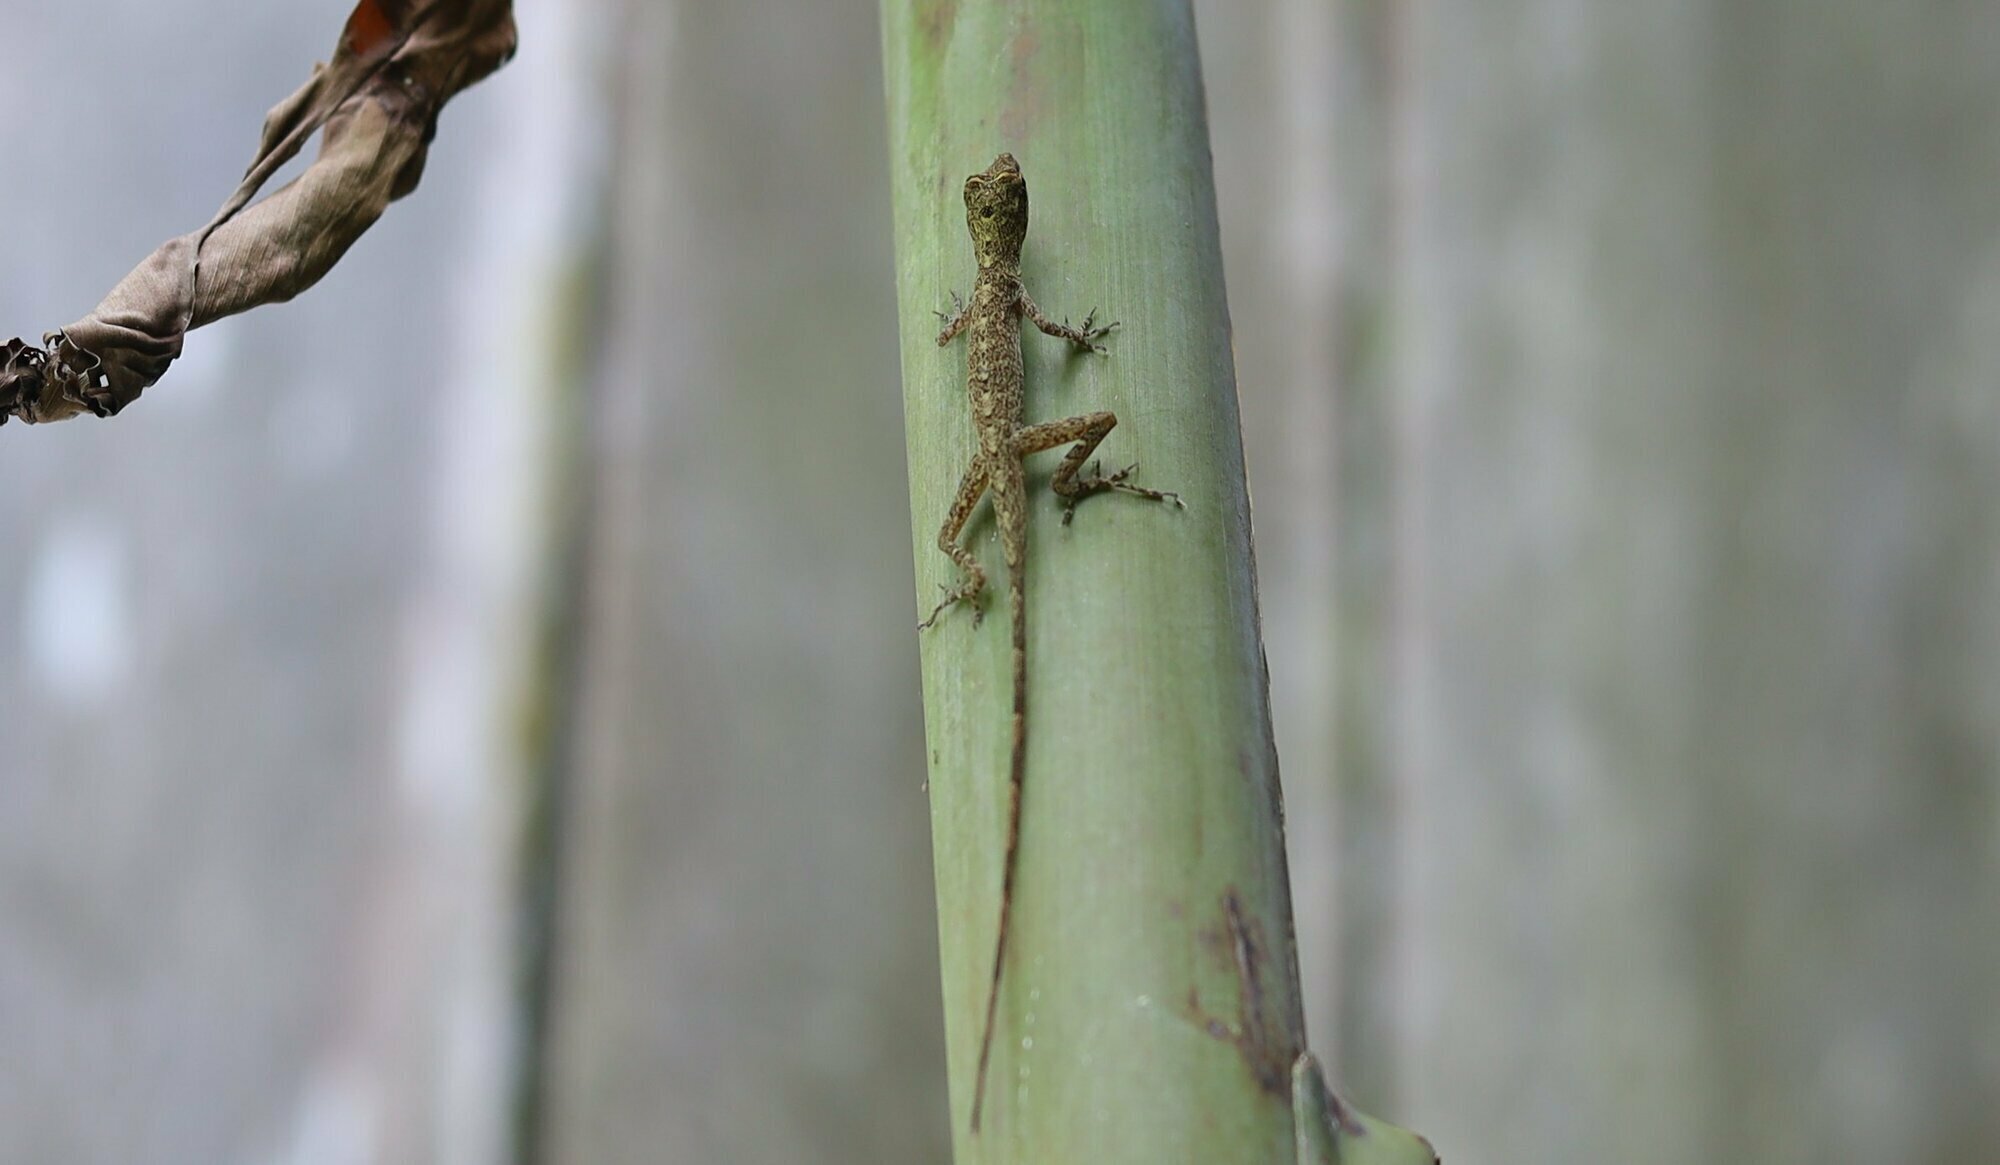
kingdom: Animalia
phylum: Chordata
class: Squamata
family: Dactyloidae
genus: Anolis
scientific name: Anolis fuscoauratus
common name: Brown-eared anole
